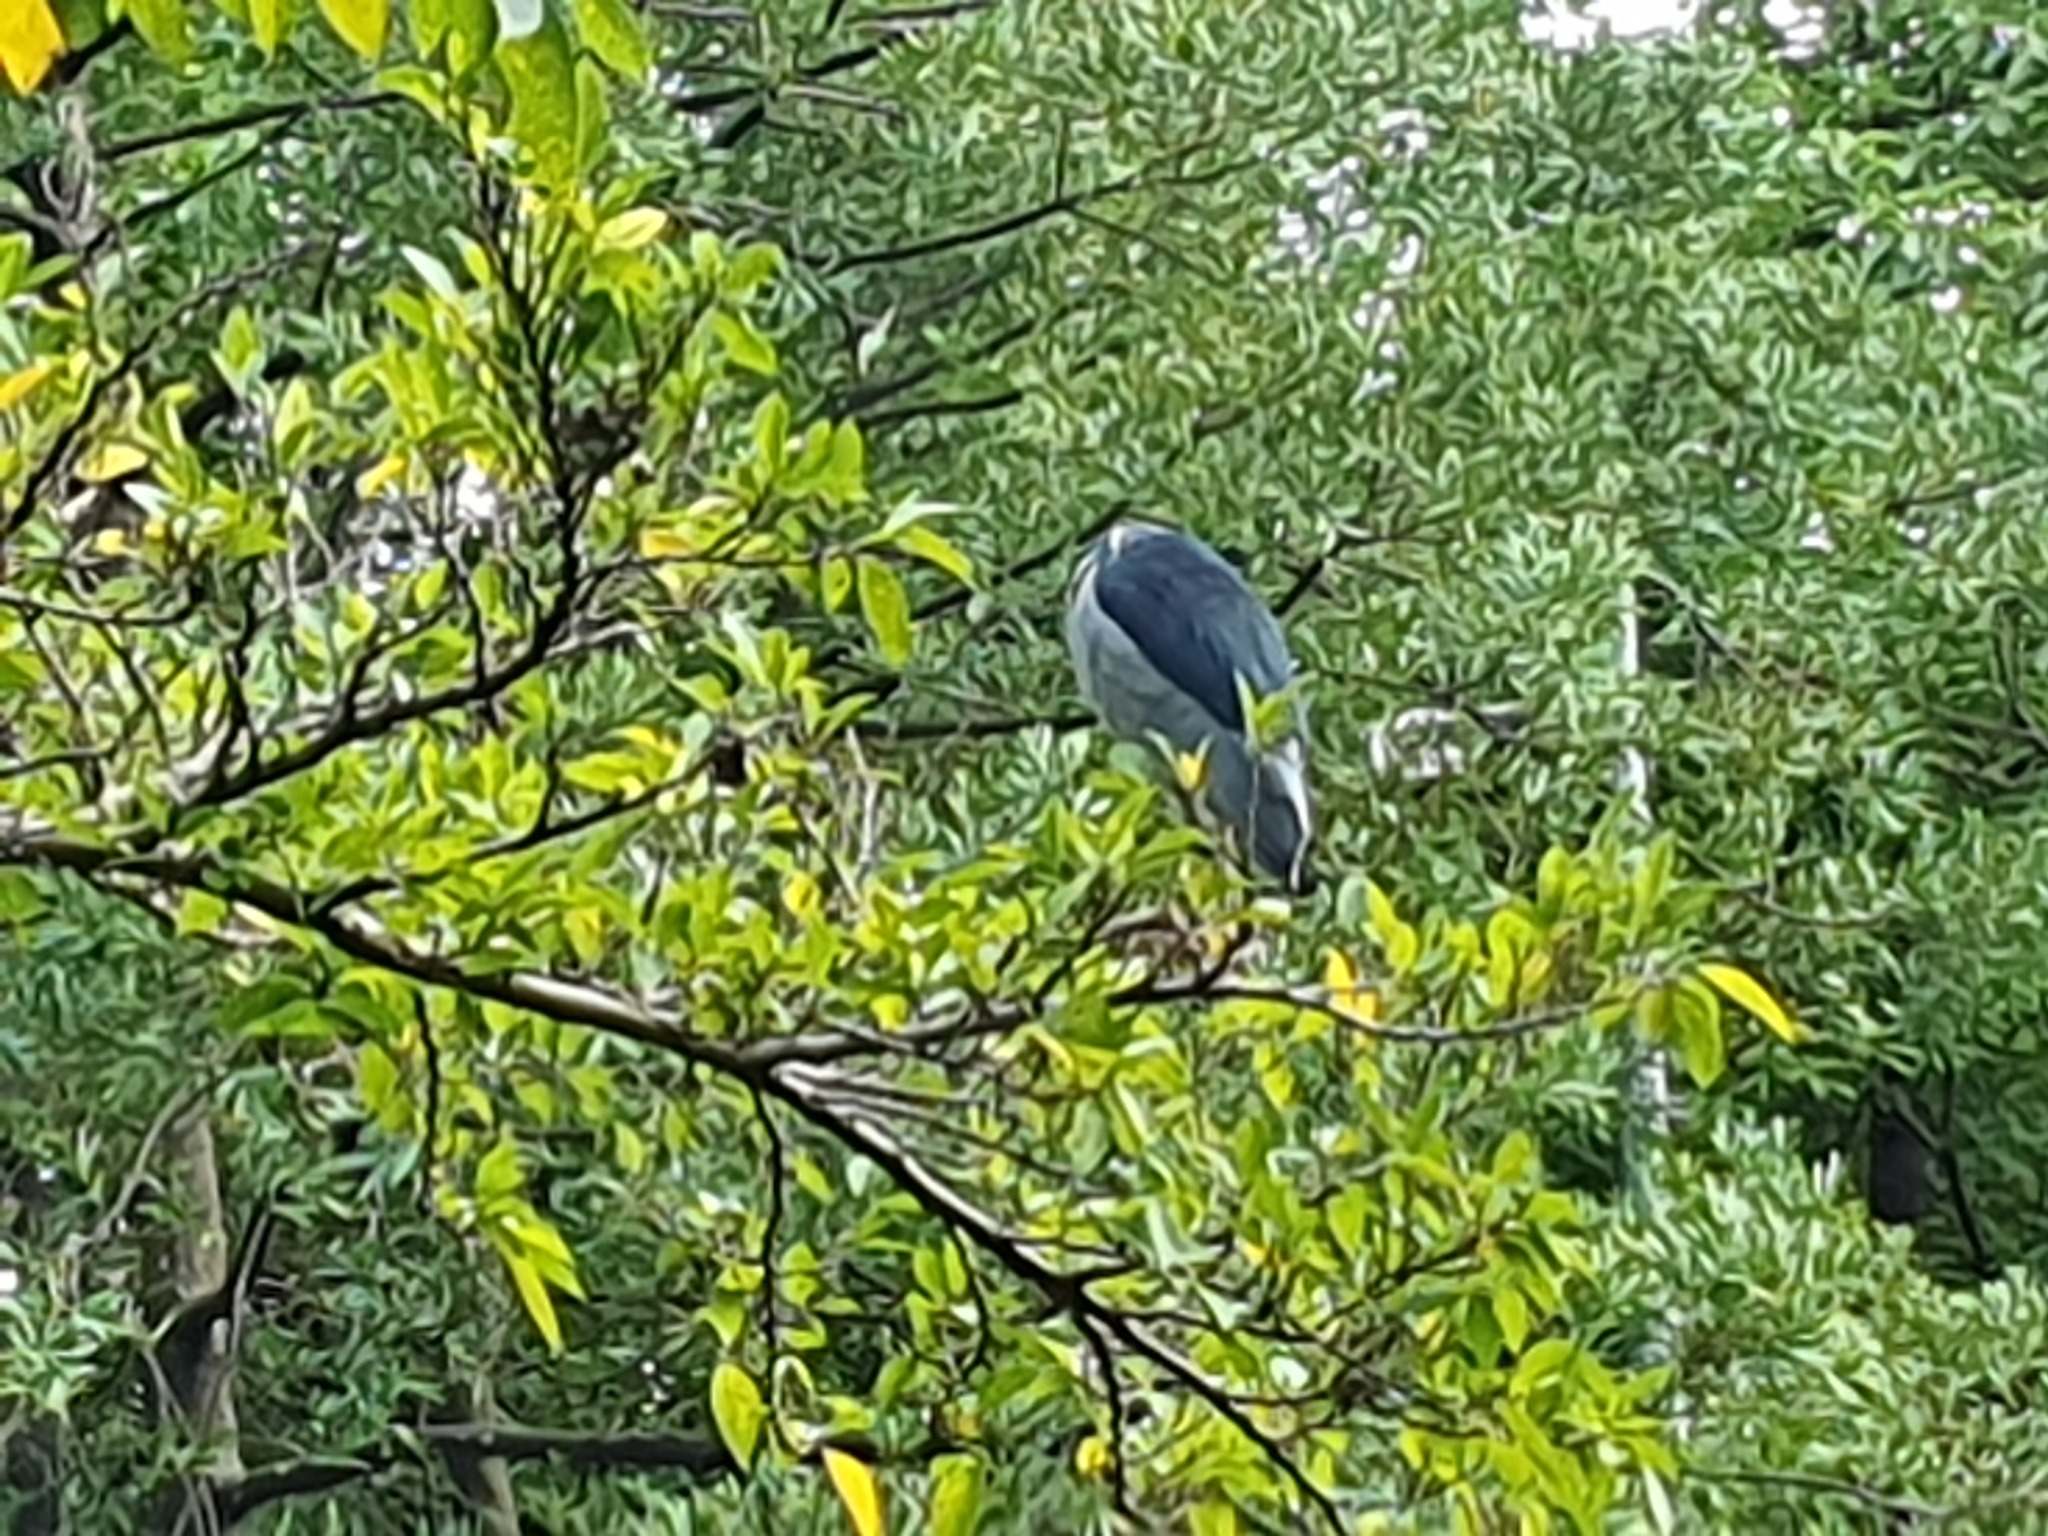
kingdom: Animalia
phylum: Chordata
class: Aves
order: Pelecaniformes
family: Ardeidae
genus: Nycticorax
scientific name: Nycticorax nycticorax
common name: Black-crowned night heron
